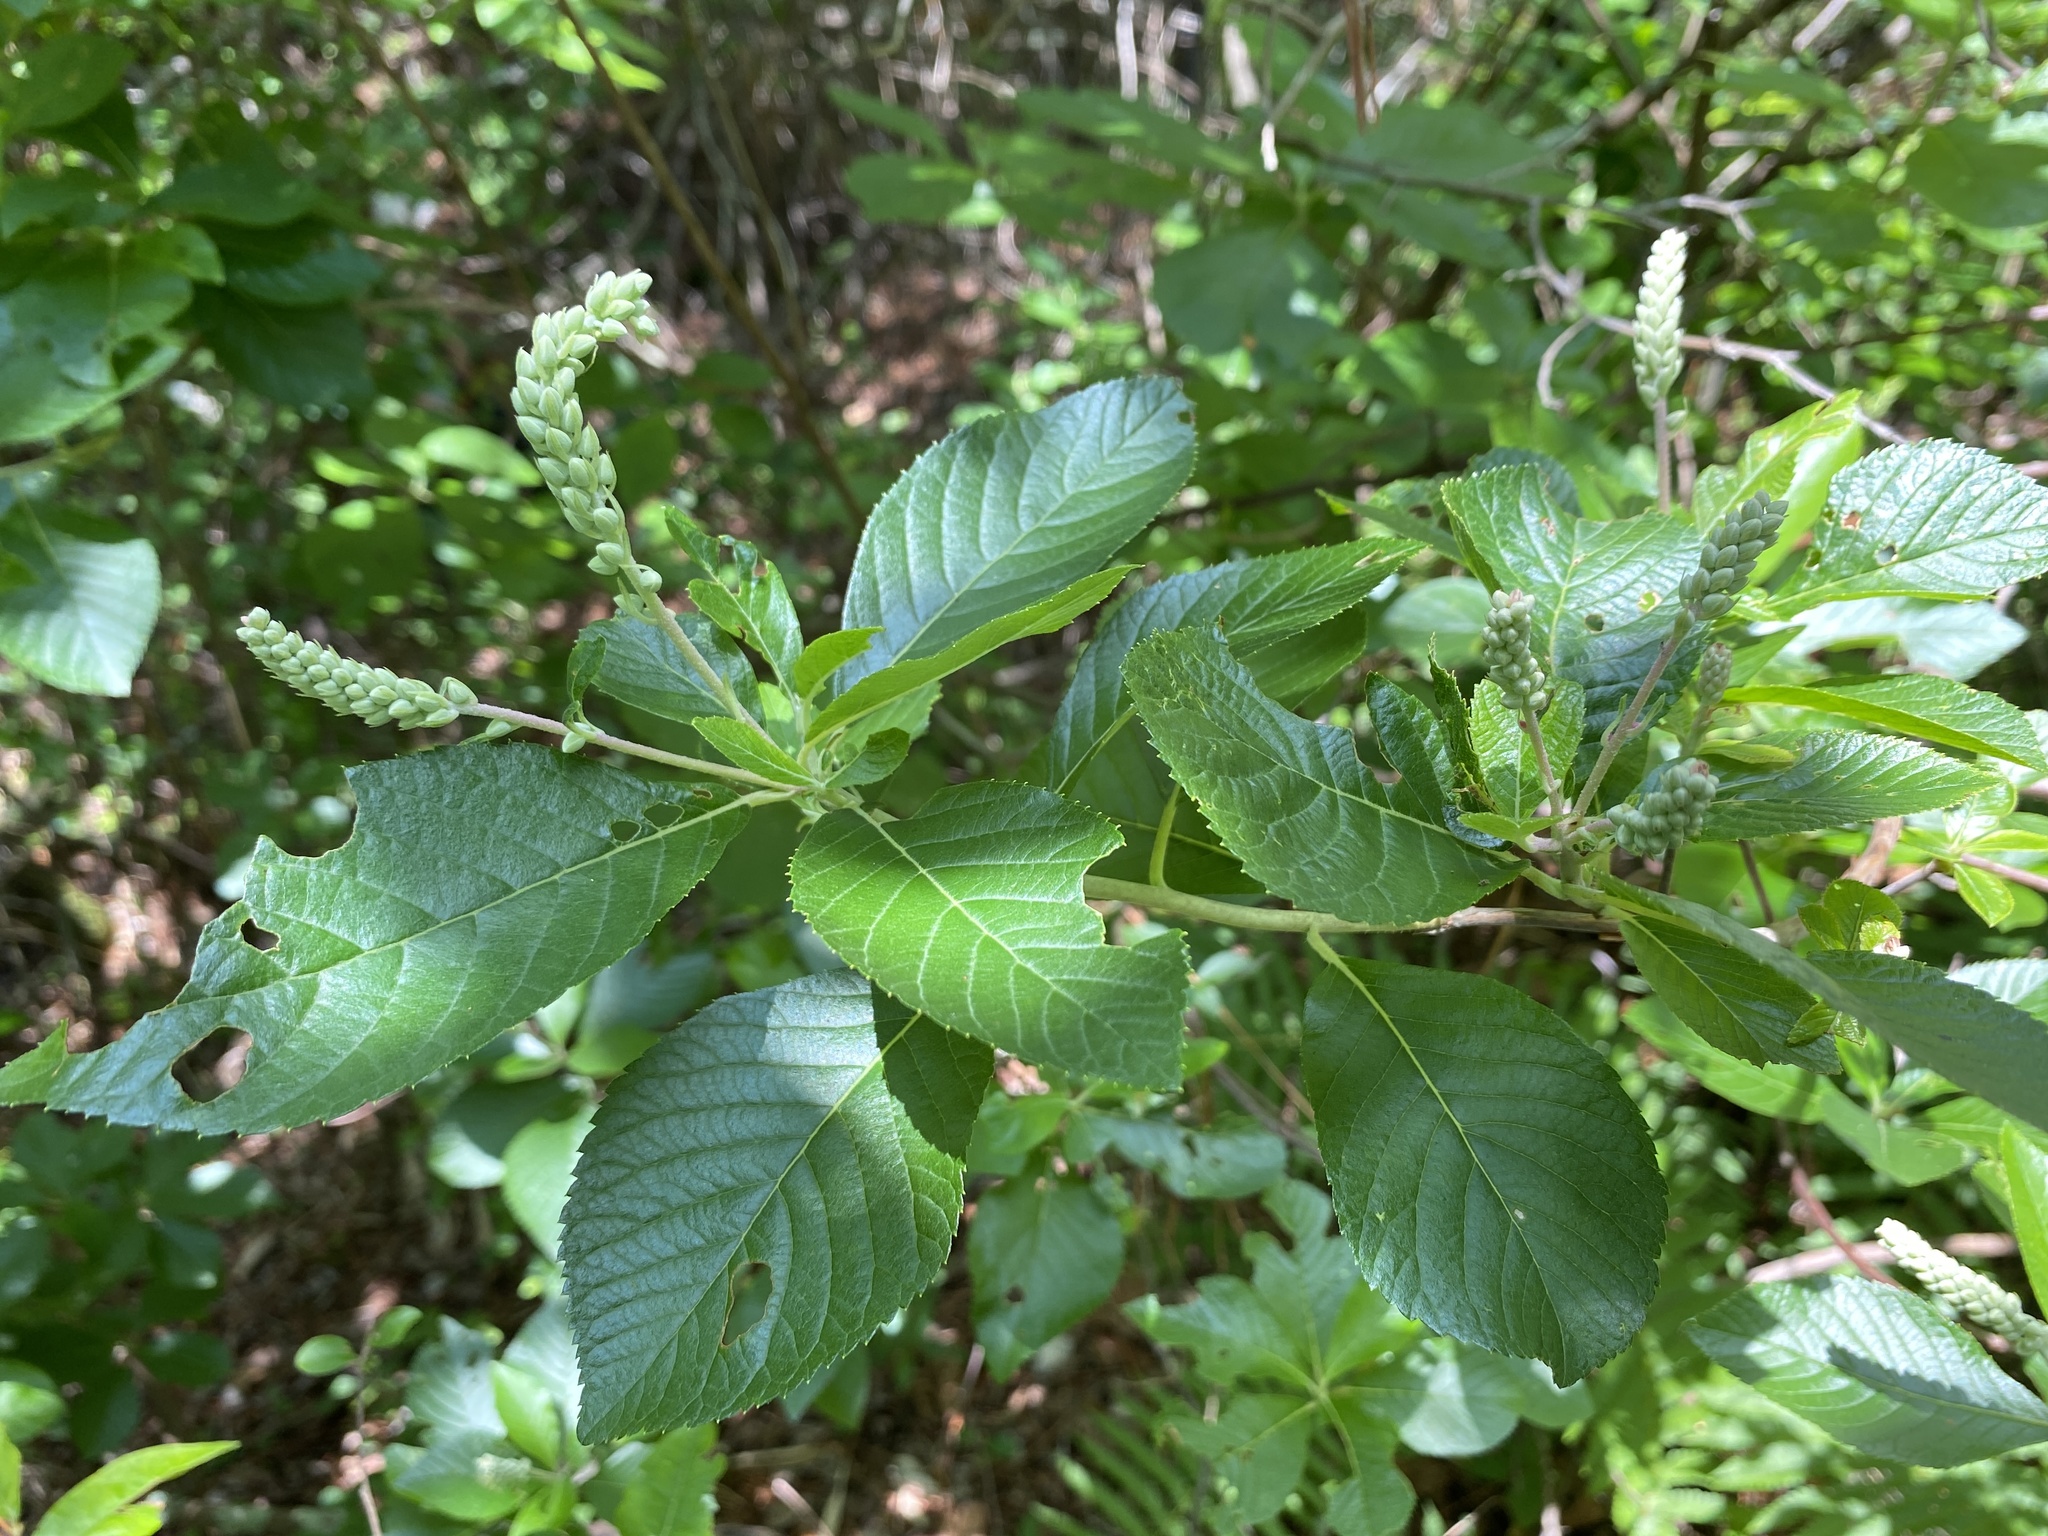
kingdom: Plantae
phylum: Tracheophyta
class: Magnoliopsida
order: Ericales
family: Clethraceae
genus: Clethra
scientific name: Clethra alnifolia
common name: Sweet pepperbush
